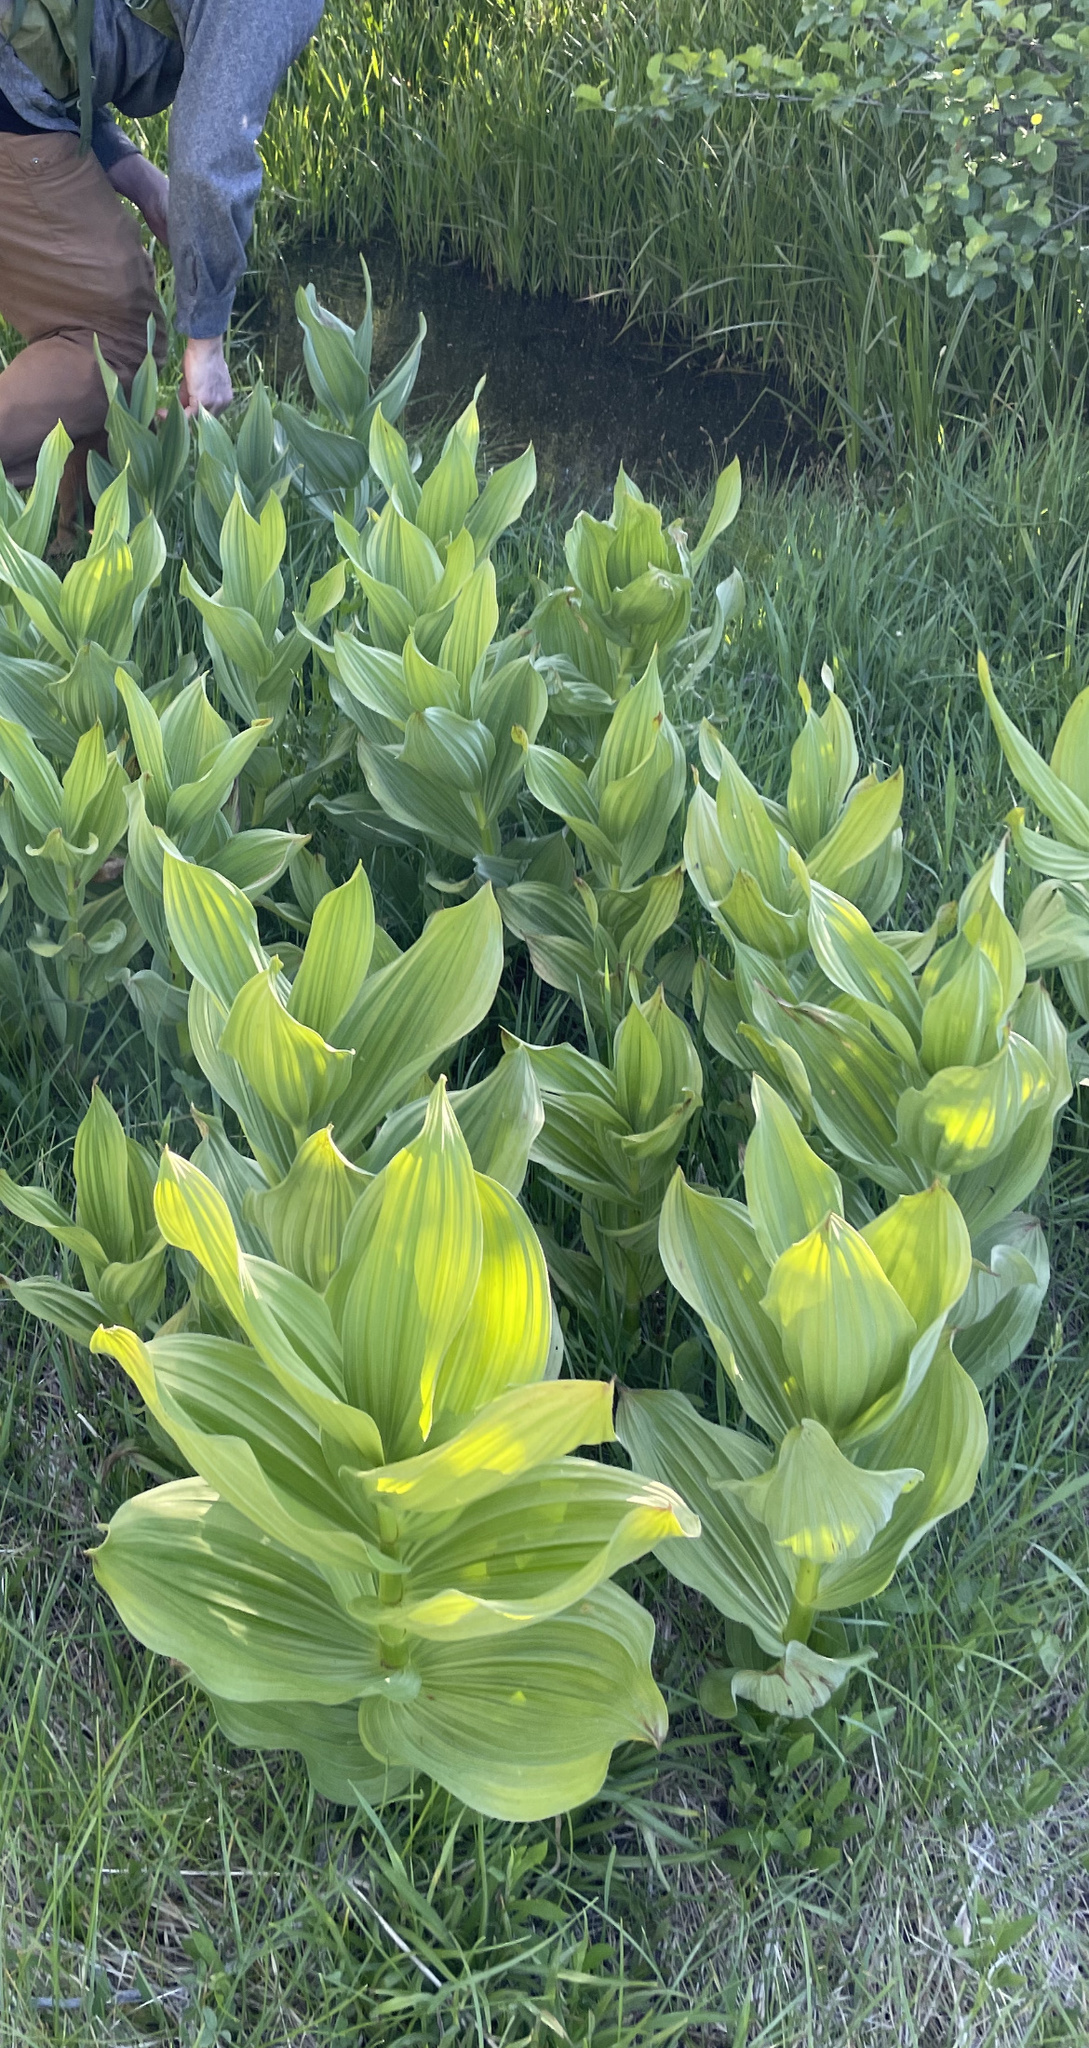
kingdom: Plantae
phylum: Tracheophyta
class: Liliopsida
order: Liliales
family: Melanthiaceae
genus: Veratrum
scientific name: Veratrum californicum
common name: California veratrum
